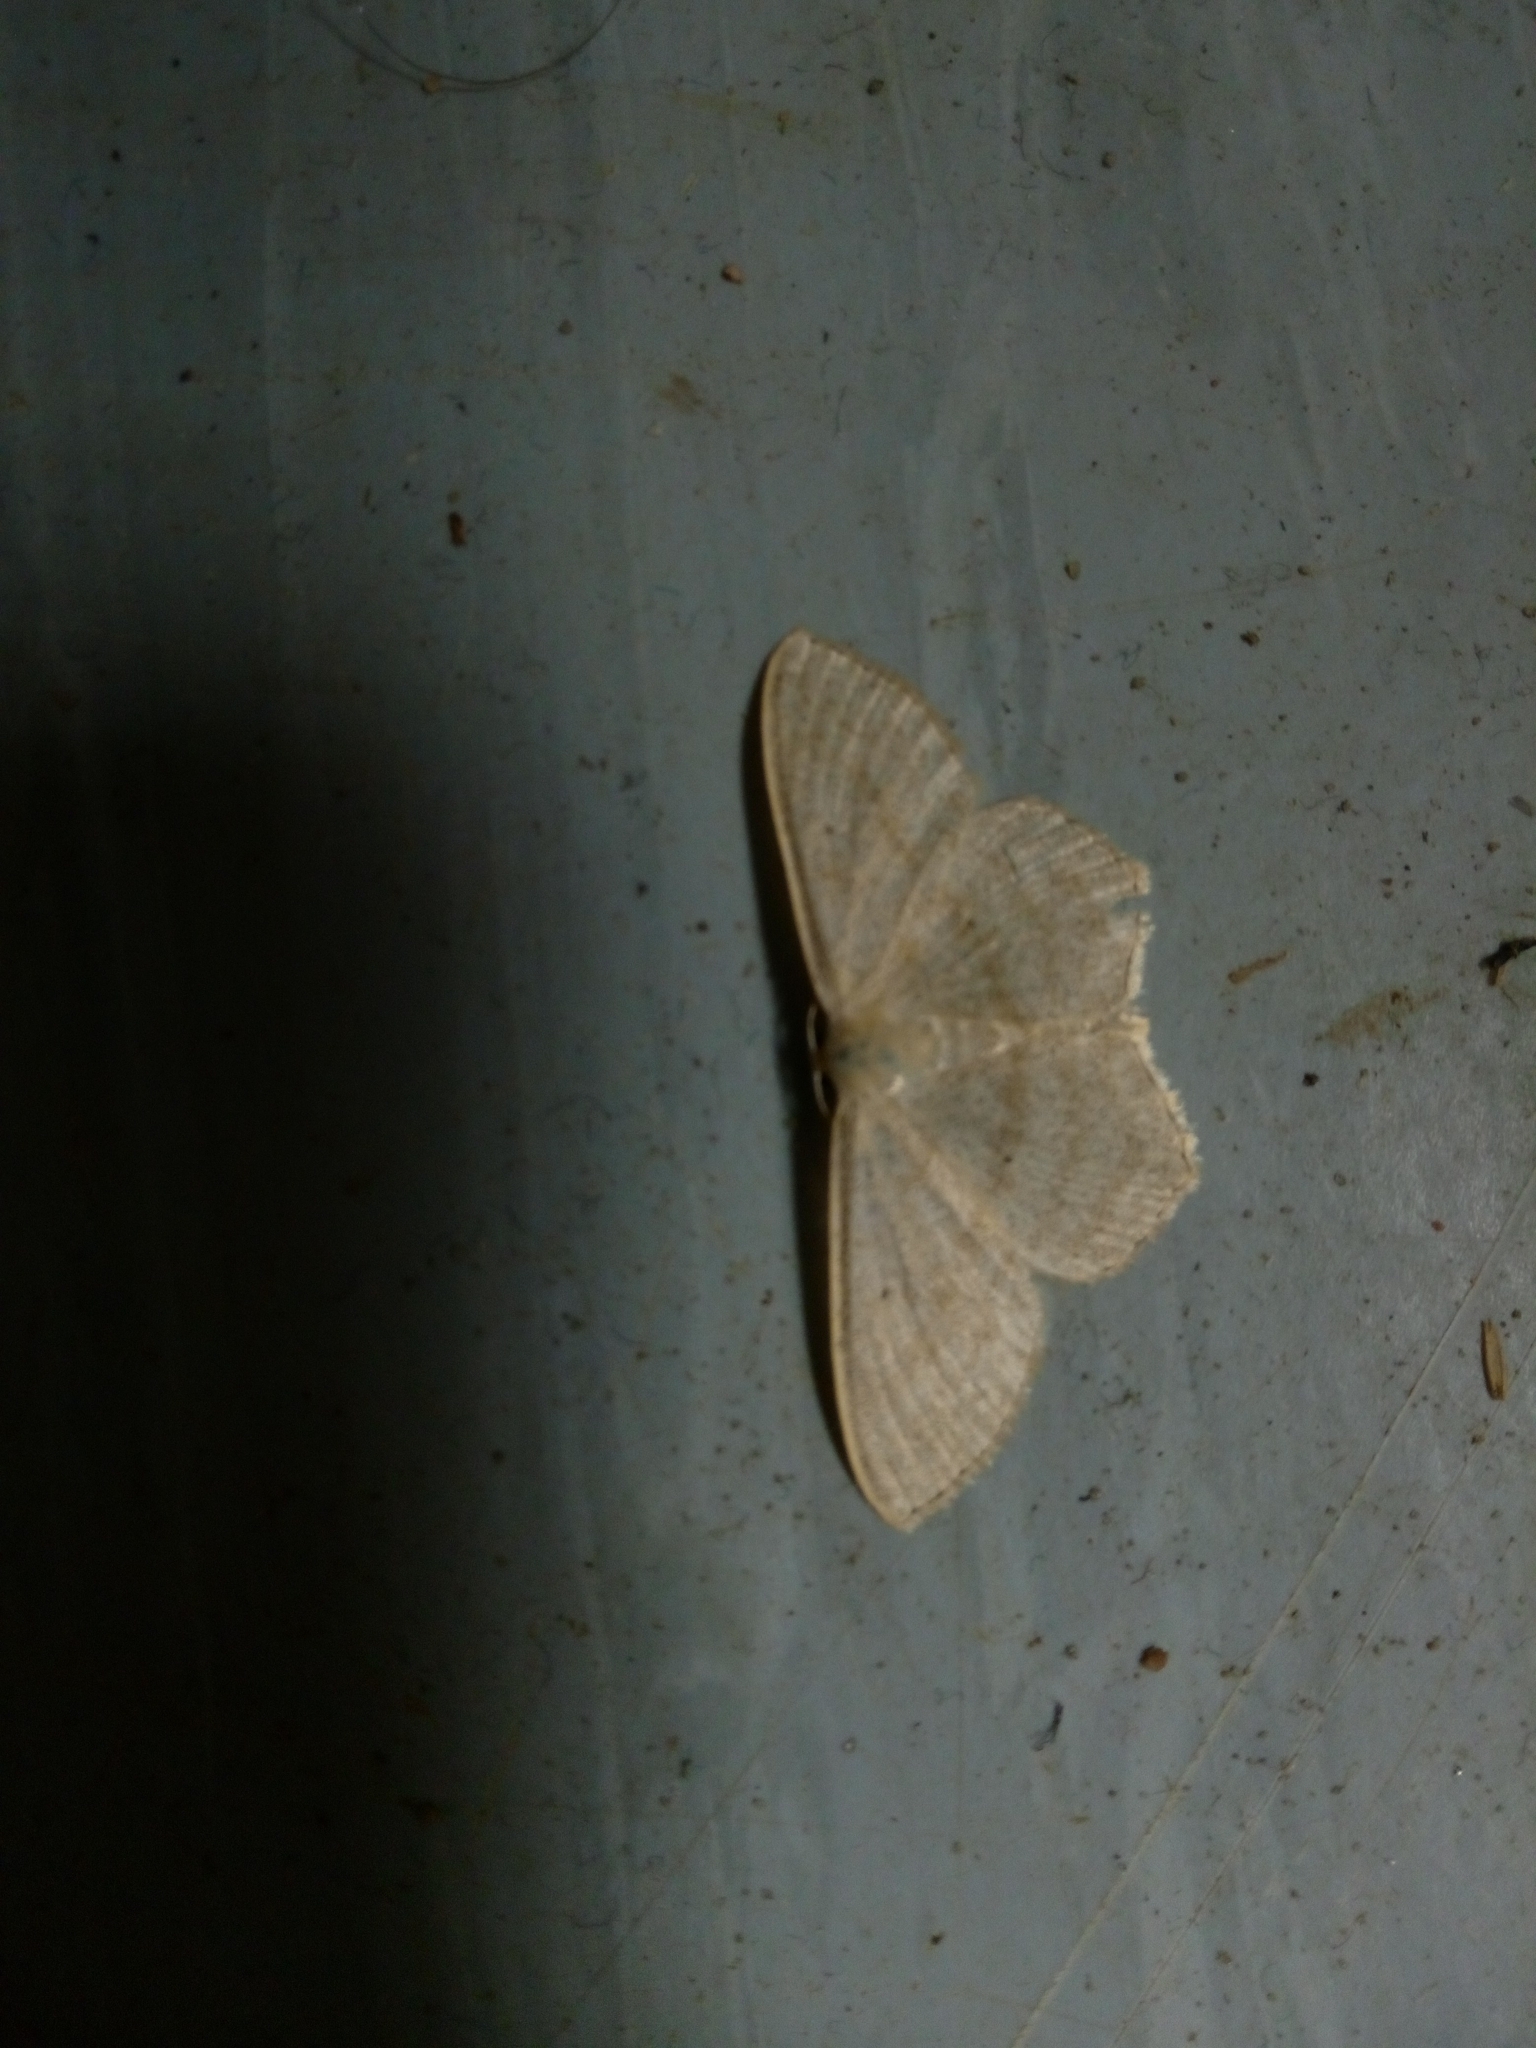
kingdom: Animalia
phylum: Arthropoda
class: Insecta
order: Lepidoptera
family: Geometridae
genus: Scopula
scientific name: Scopula nigropunctata
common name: Sub-angled wave
